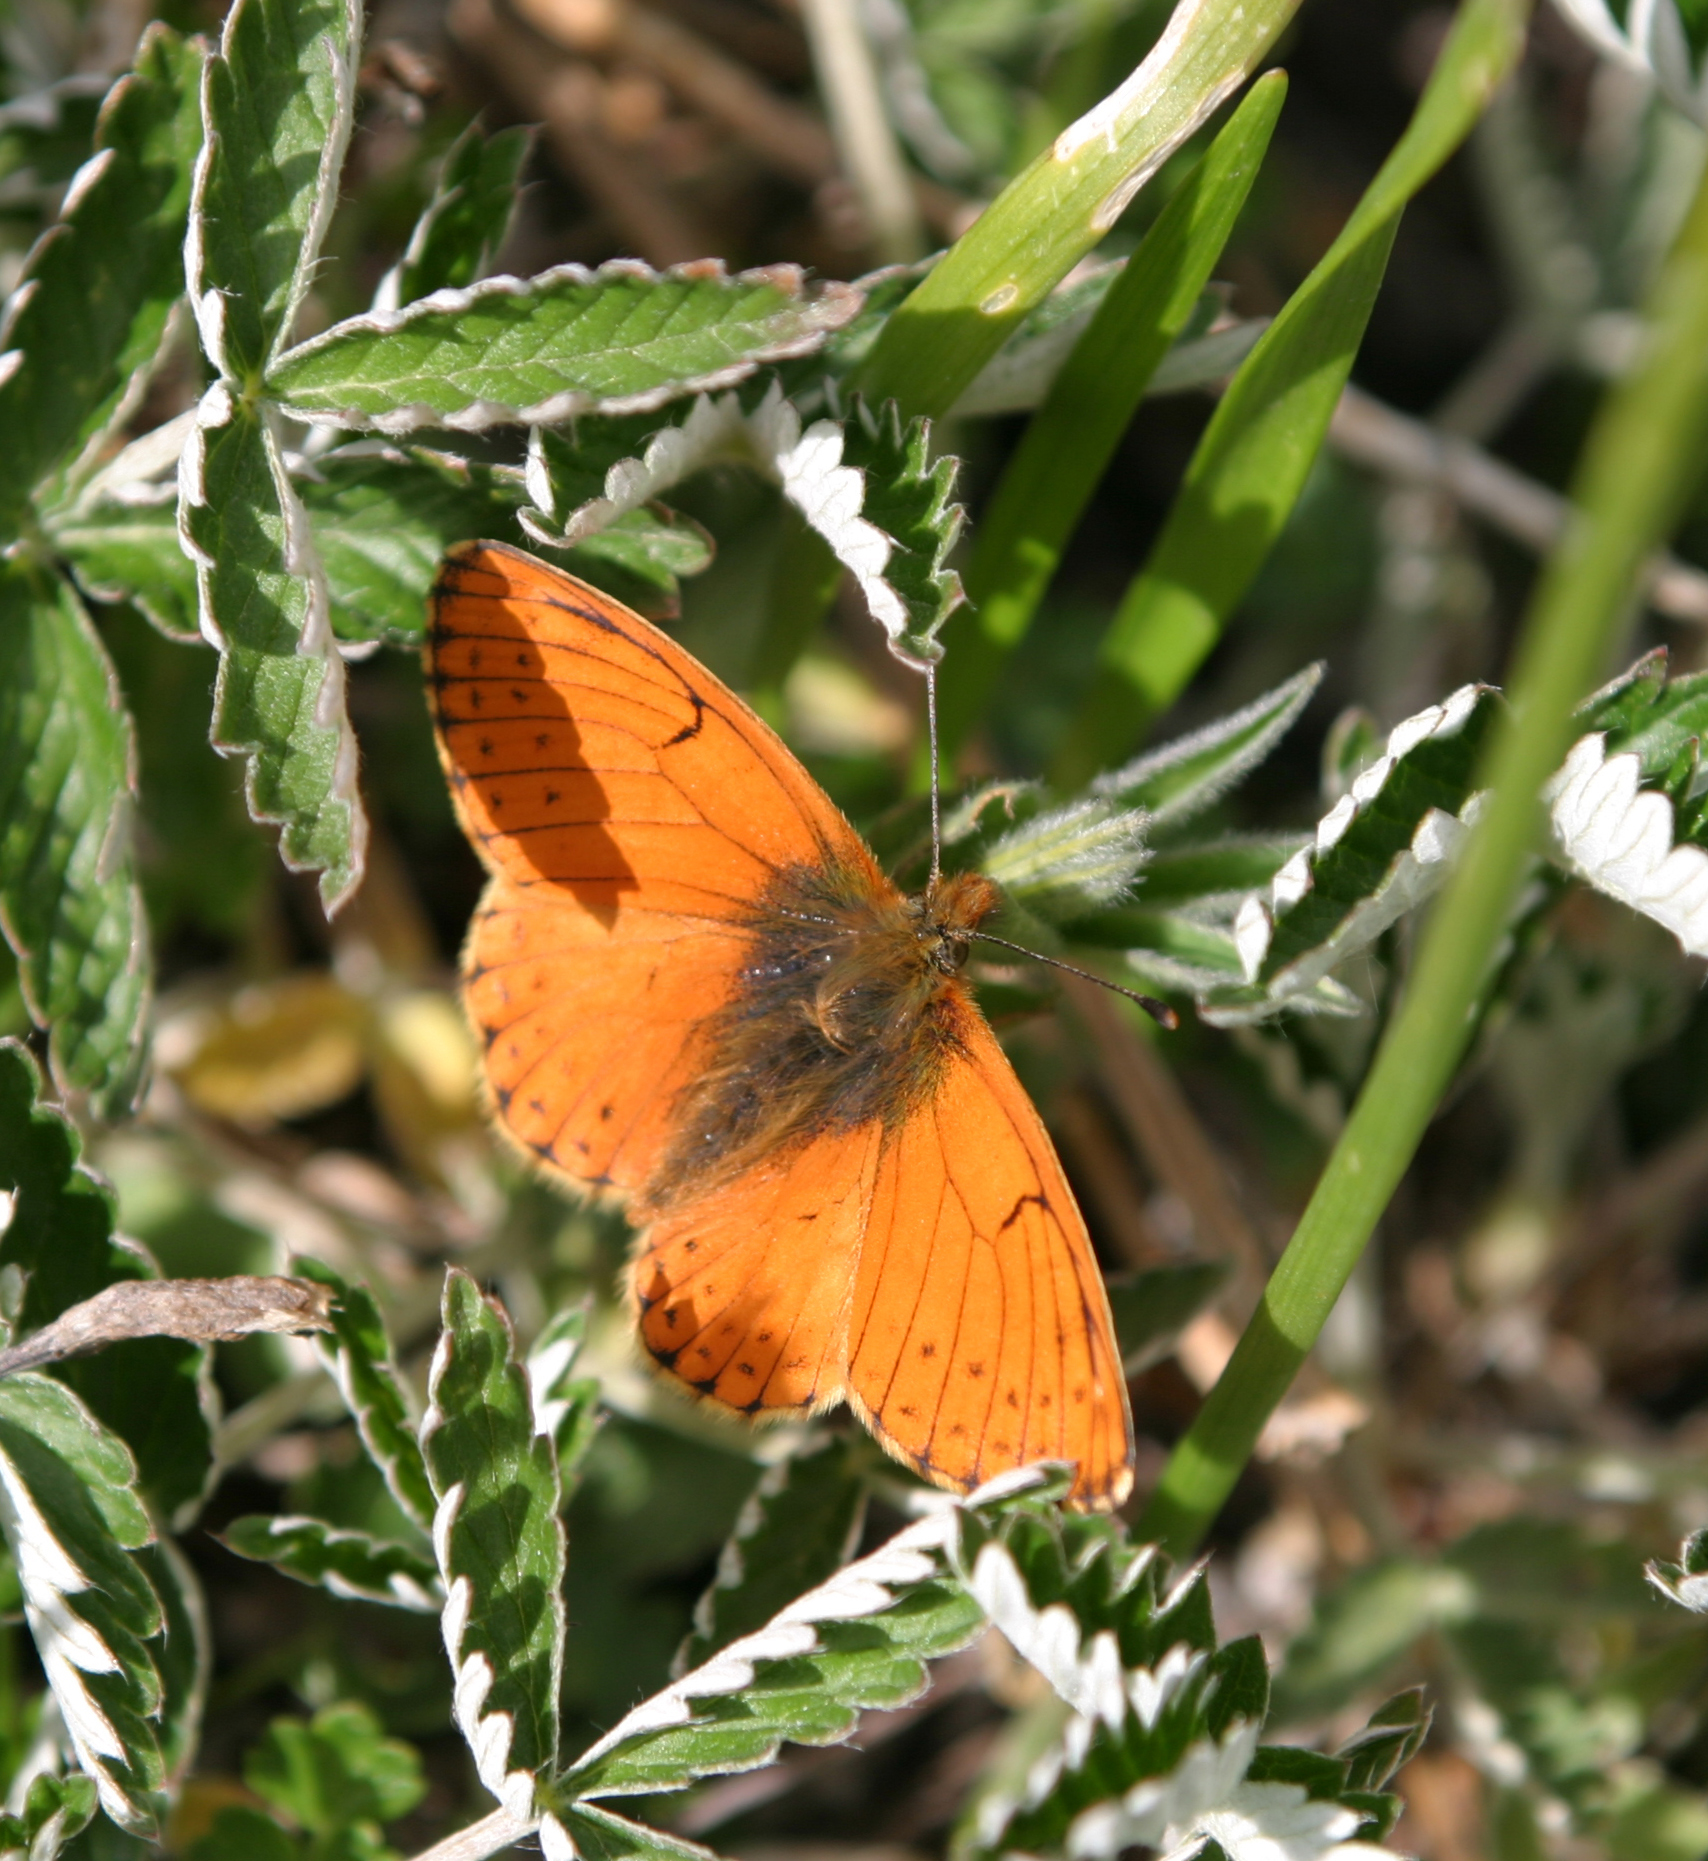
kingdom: Animalia
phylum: Arthropoda
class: Insecta
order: Lepidoptera
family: Nymphalidae
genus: Boloria
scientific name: Boloria sipora
